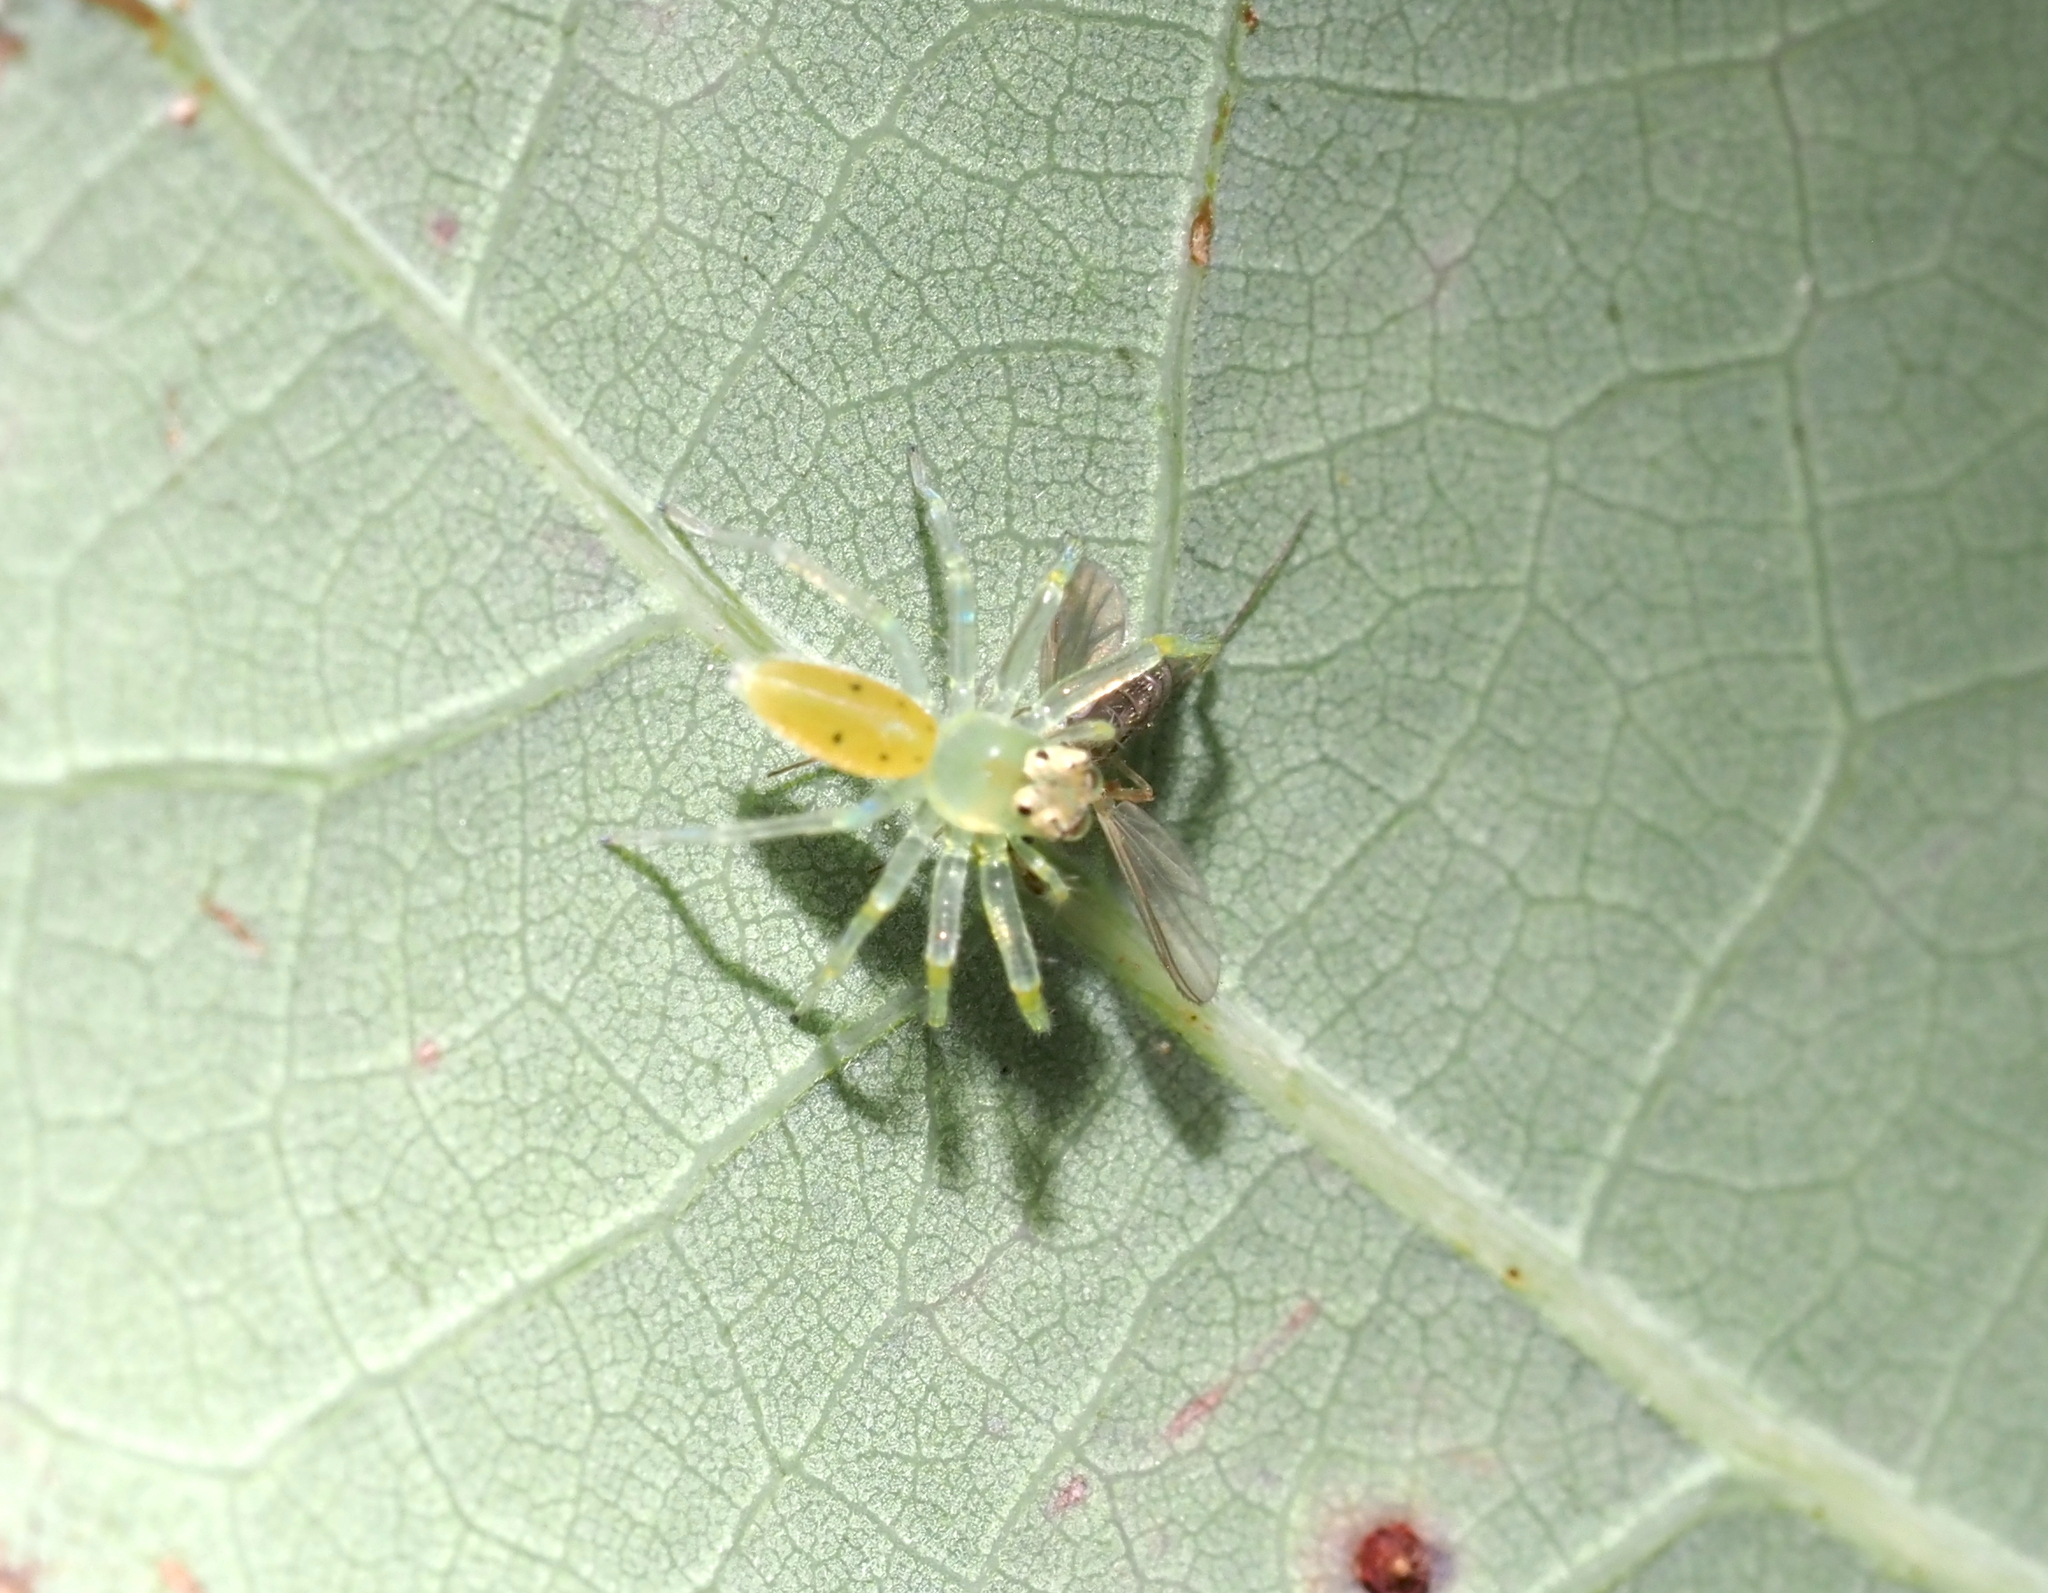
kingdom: Animalia
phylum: Arthropoda
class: Arachnida
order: Araneae
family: Salticidae
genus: Lyssomanes
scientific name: Lyssomanes viridis
